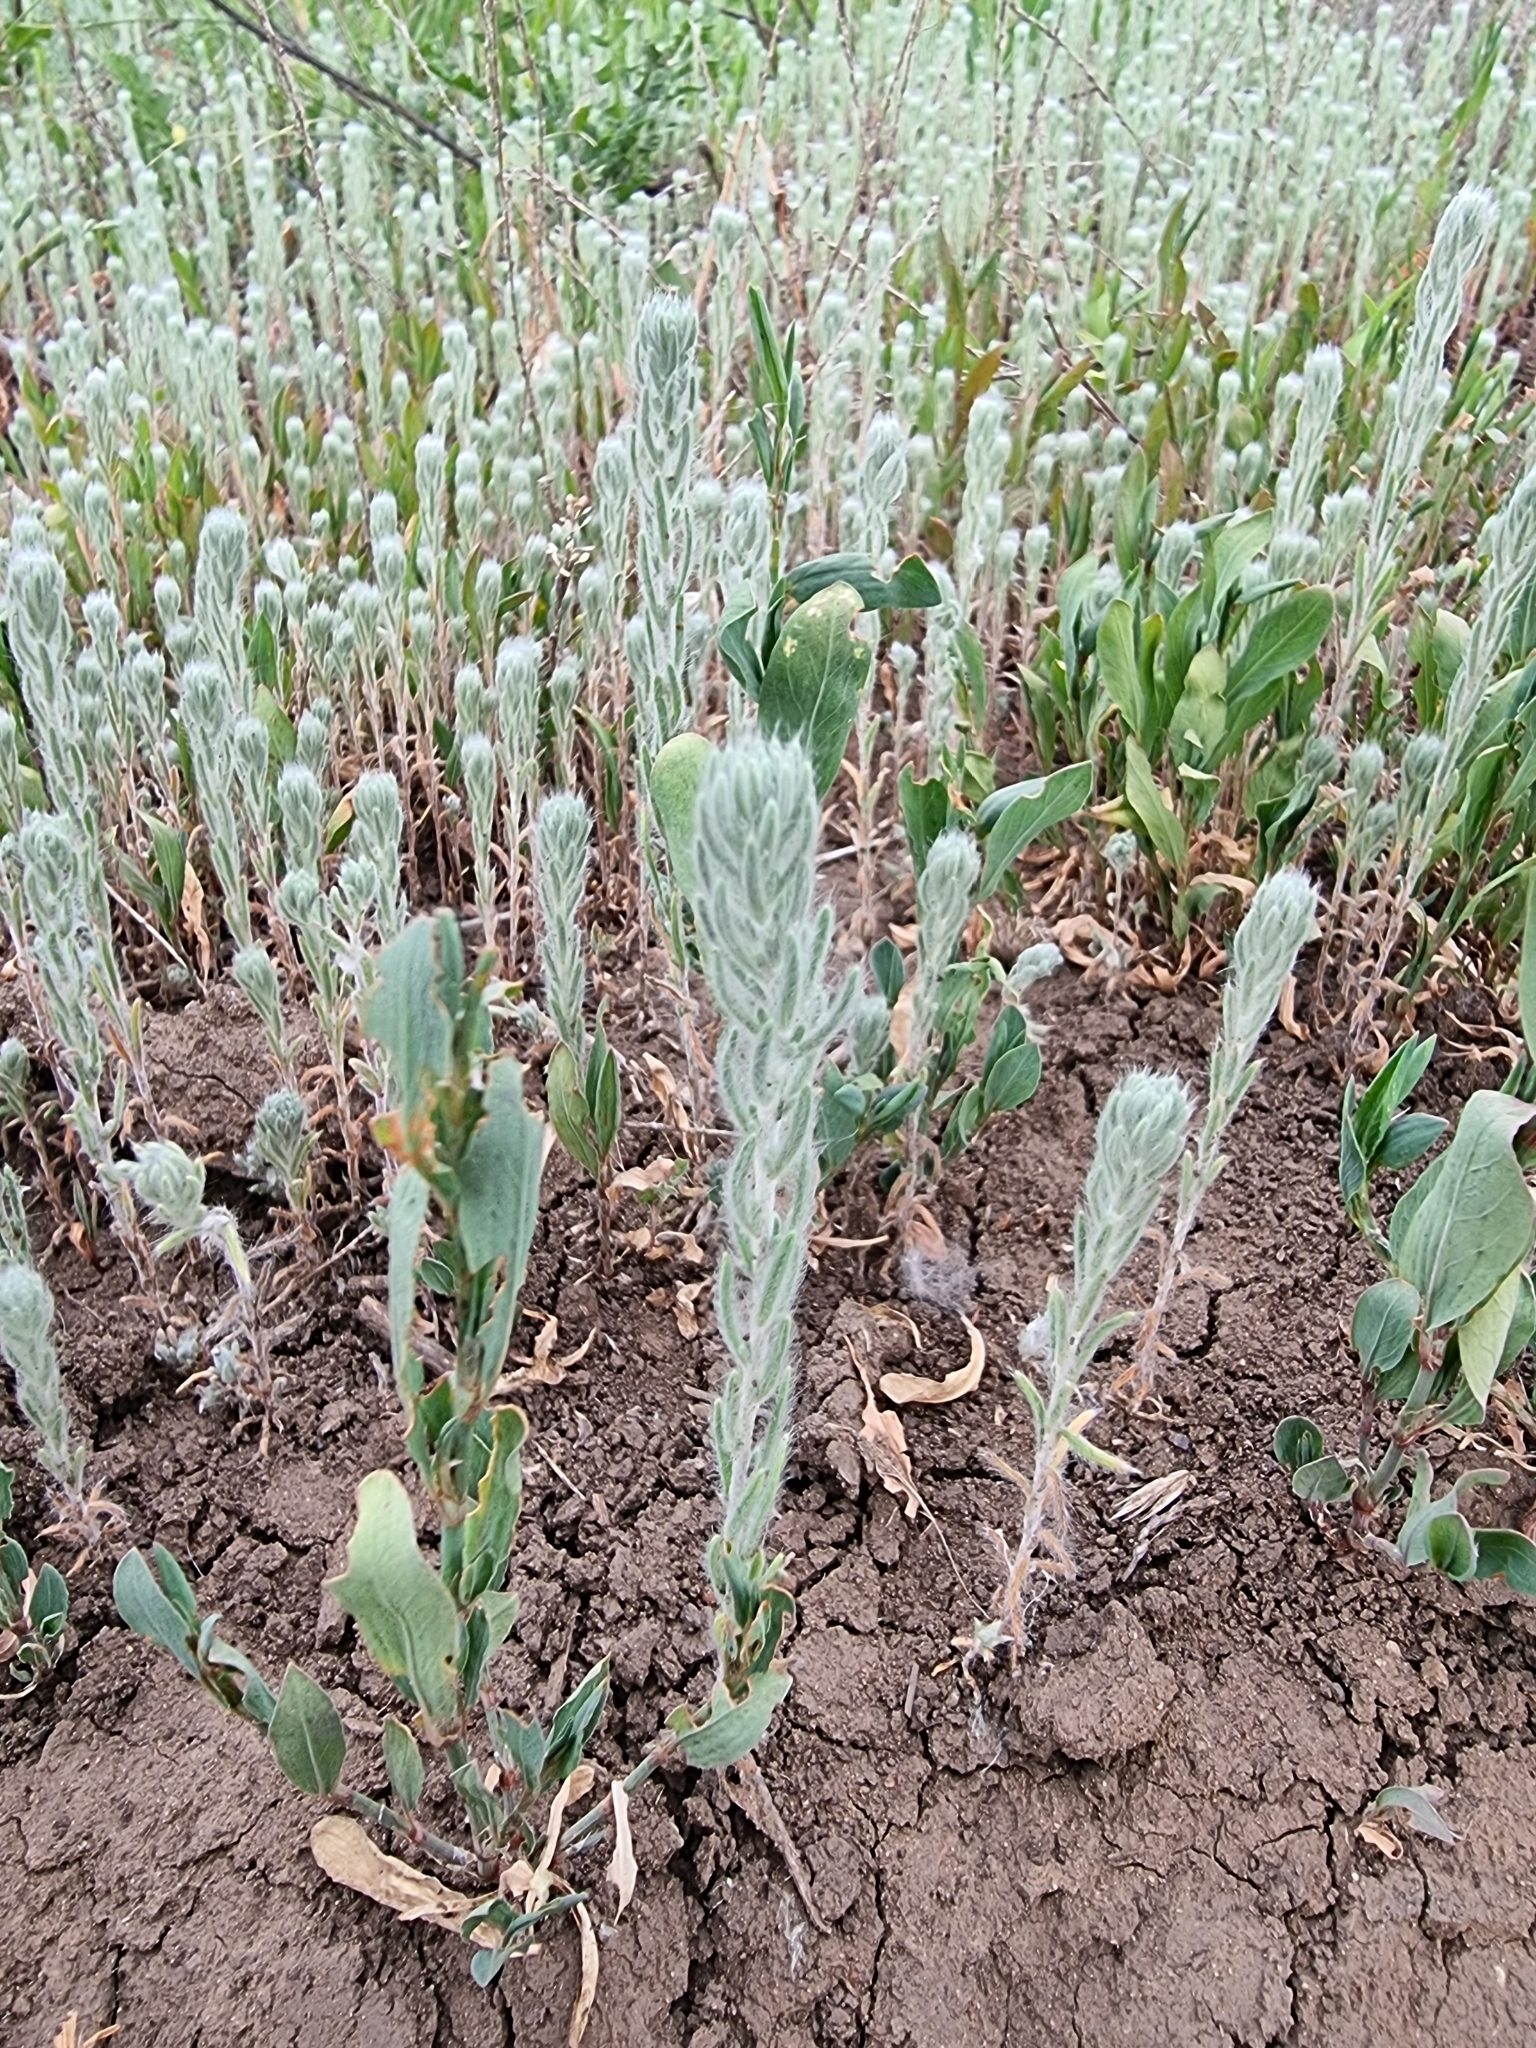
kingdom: Plantae
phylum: Tracheophyta
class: Magnoliopsida
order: Caryophyllales
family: Amaranthaceae
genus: Sedobassia
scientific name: Sedobassia sedoides
